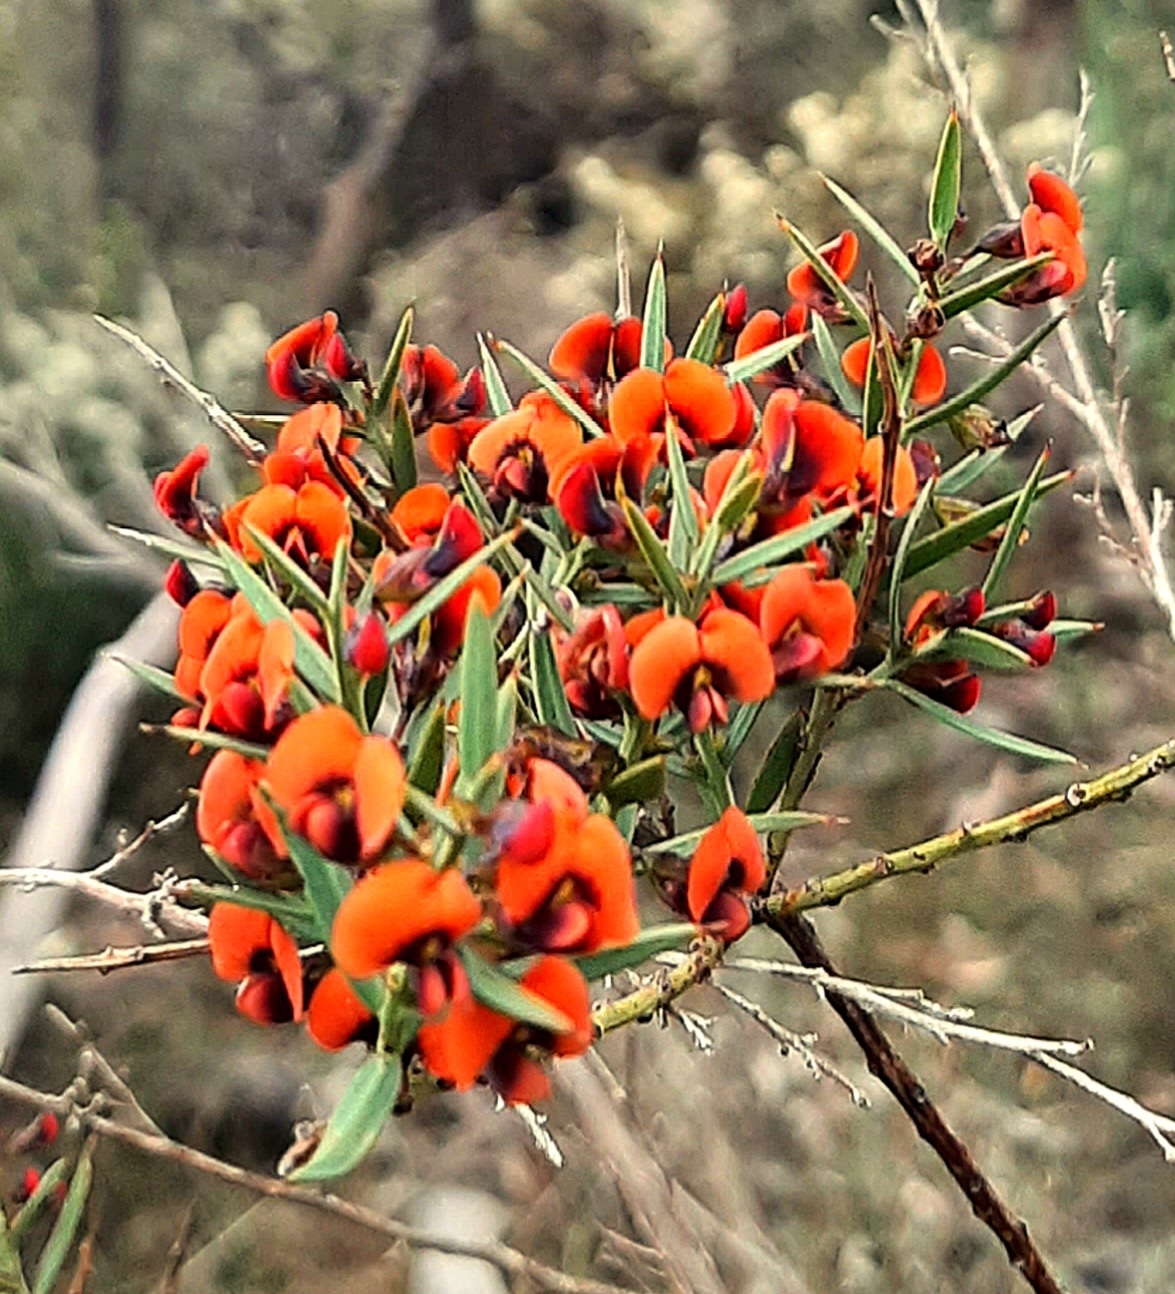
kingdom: Plantae
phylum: Tracheophyta
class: Magnoliopsida
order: Fabales
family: Fabaceae
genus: Daviesia
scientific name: Daviesia ulicifolia
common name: Gorse bitter-pea
